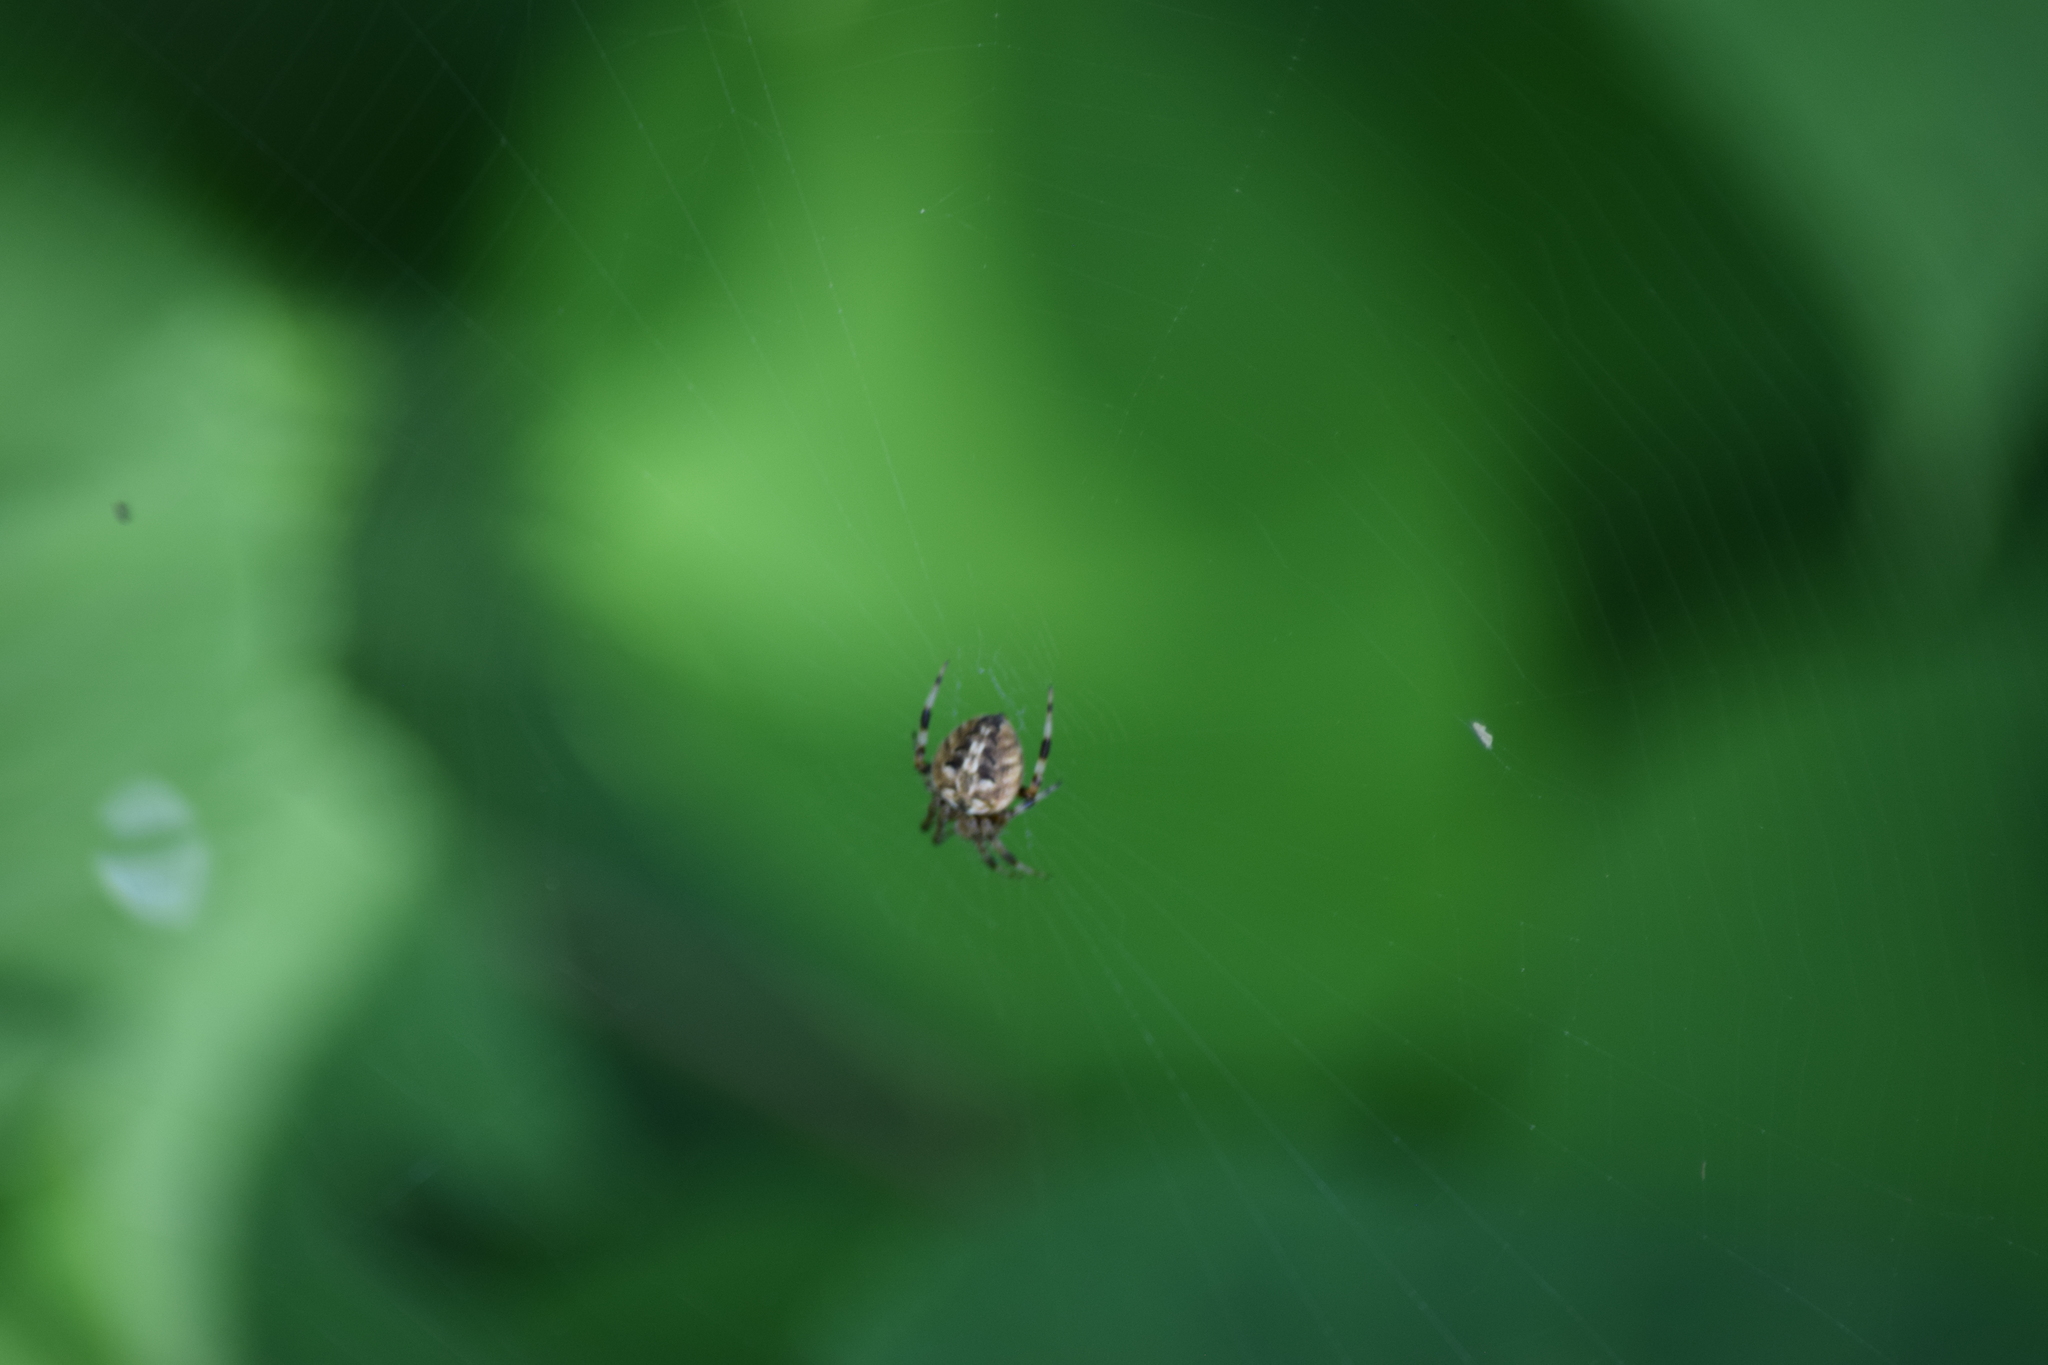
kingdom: Animalia
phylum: Arthropoda
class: Arachnida
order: Araneae
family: Araneidae
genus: Neoscona
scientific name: Neoscona arabesca
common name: Orb weavers
